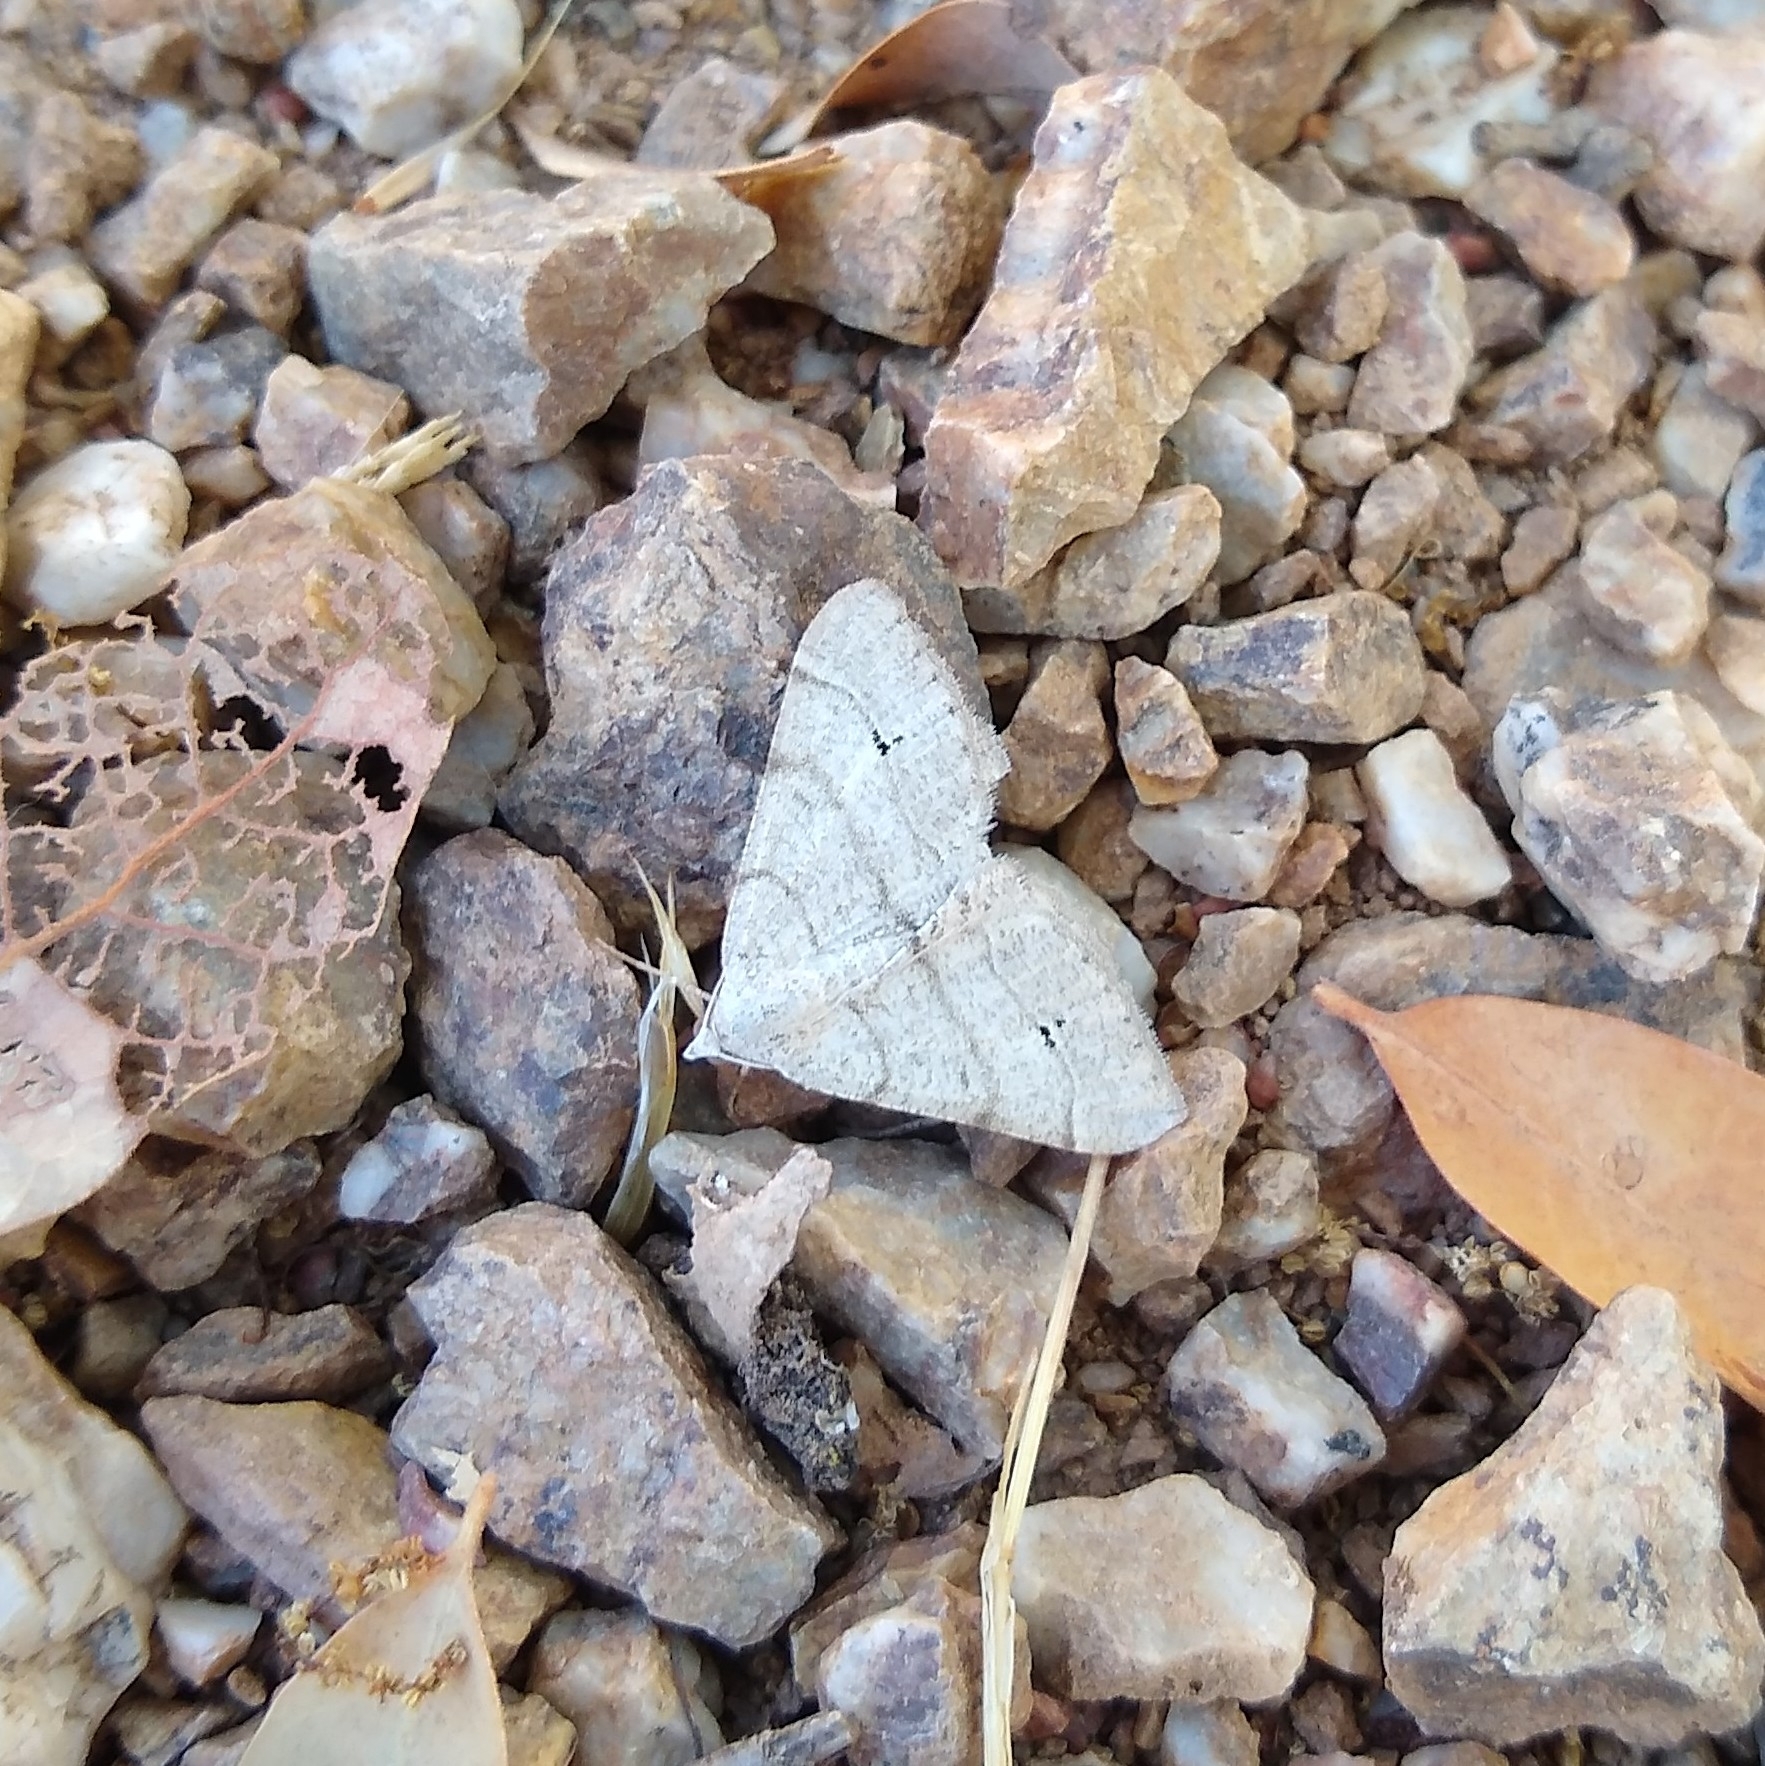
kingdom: Animalia
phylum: Arthropoda
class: Insecta
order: Lepidoptera
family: Geometridae
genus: Digrammia
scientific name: Digrammia muscariata
